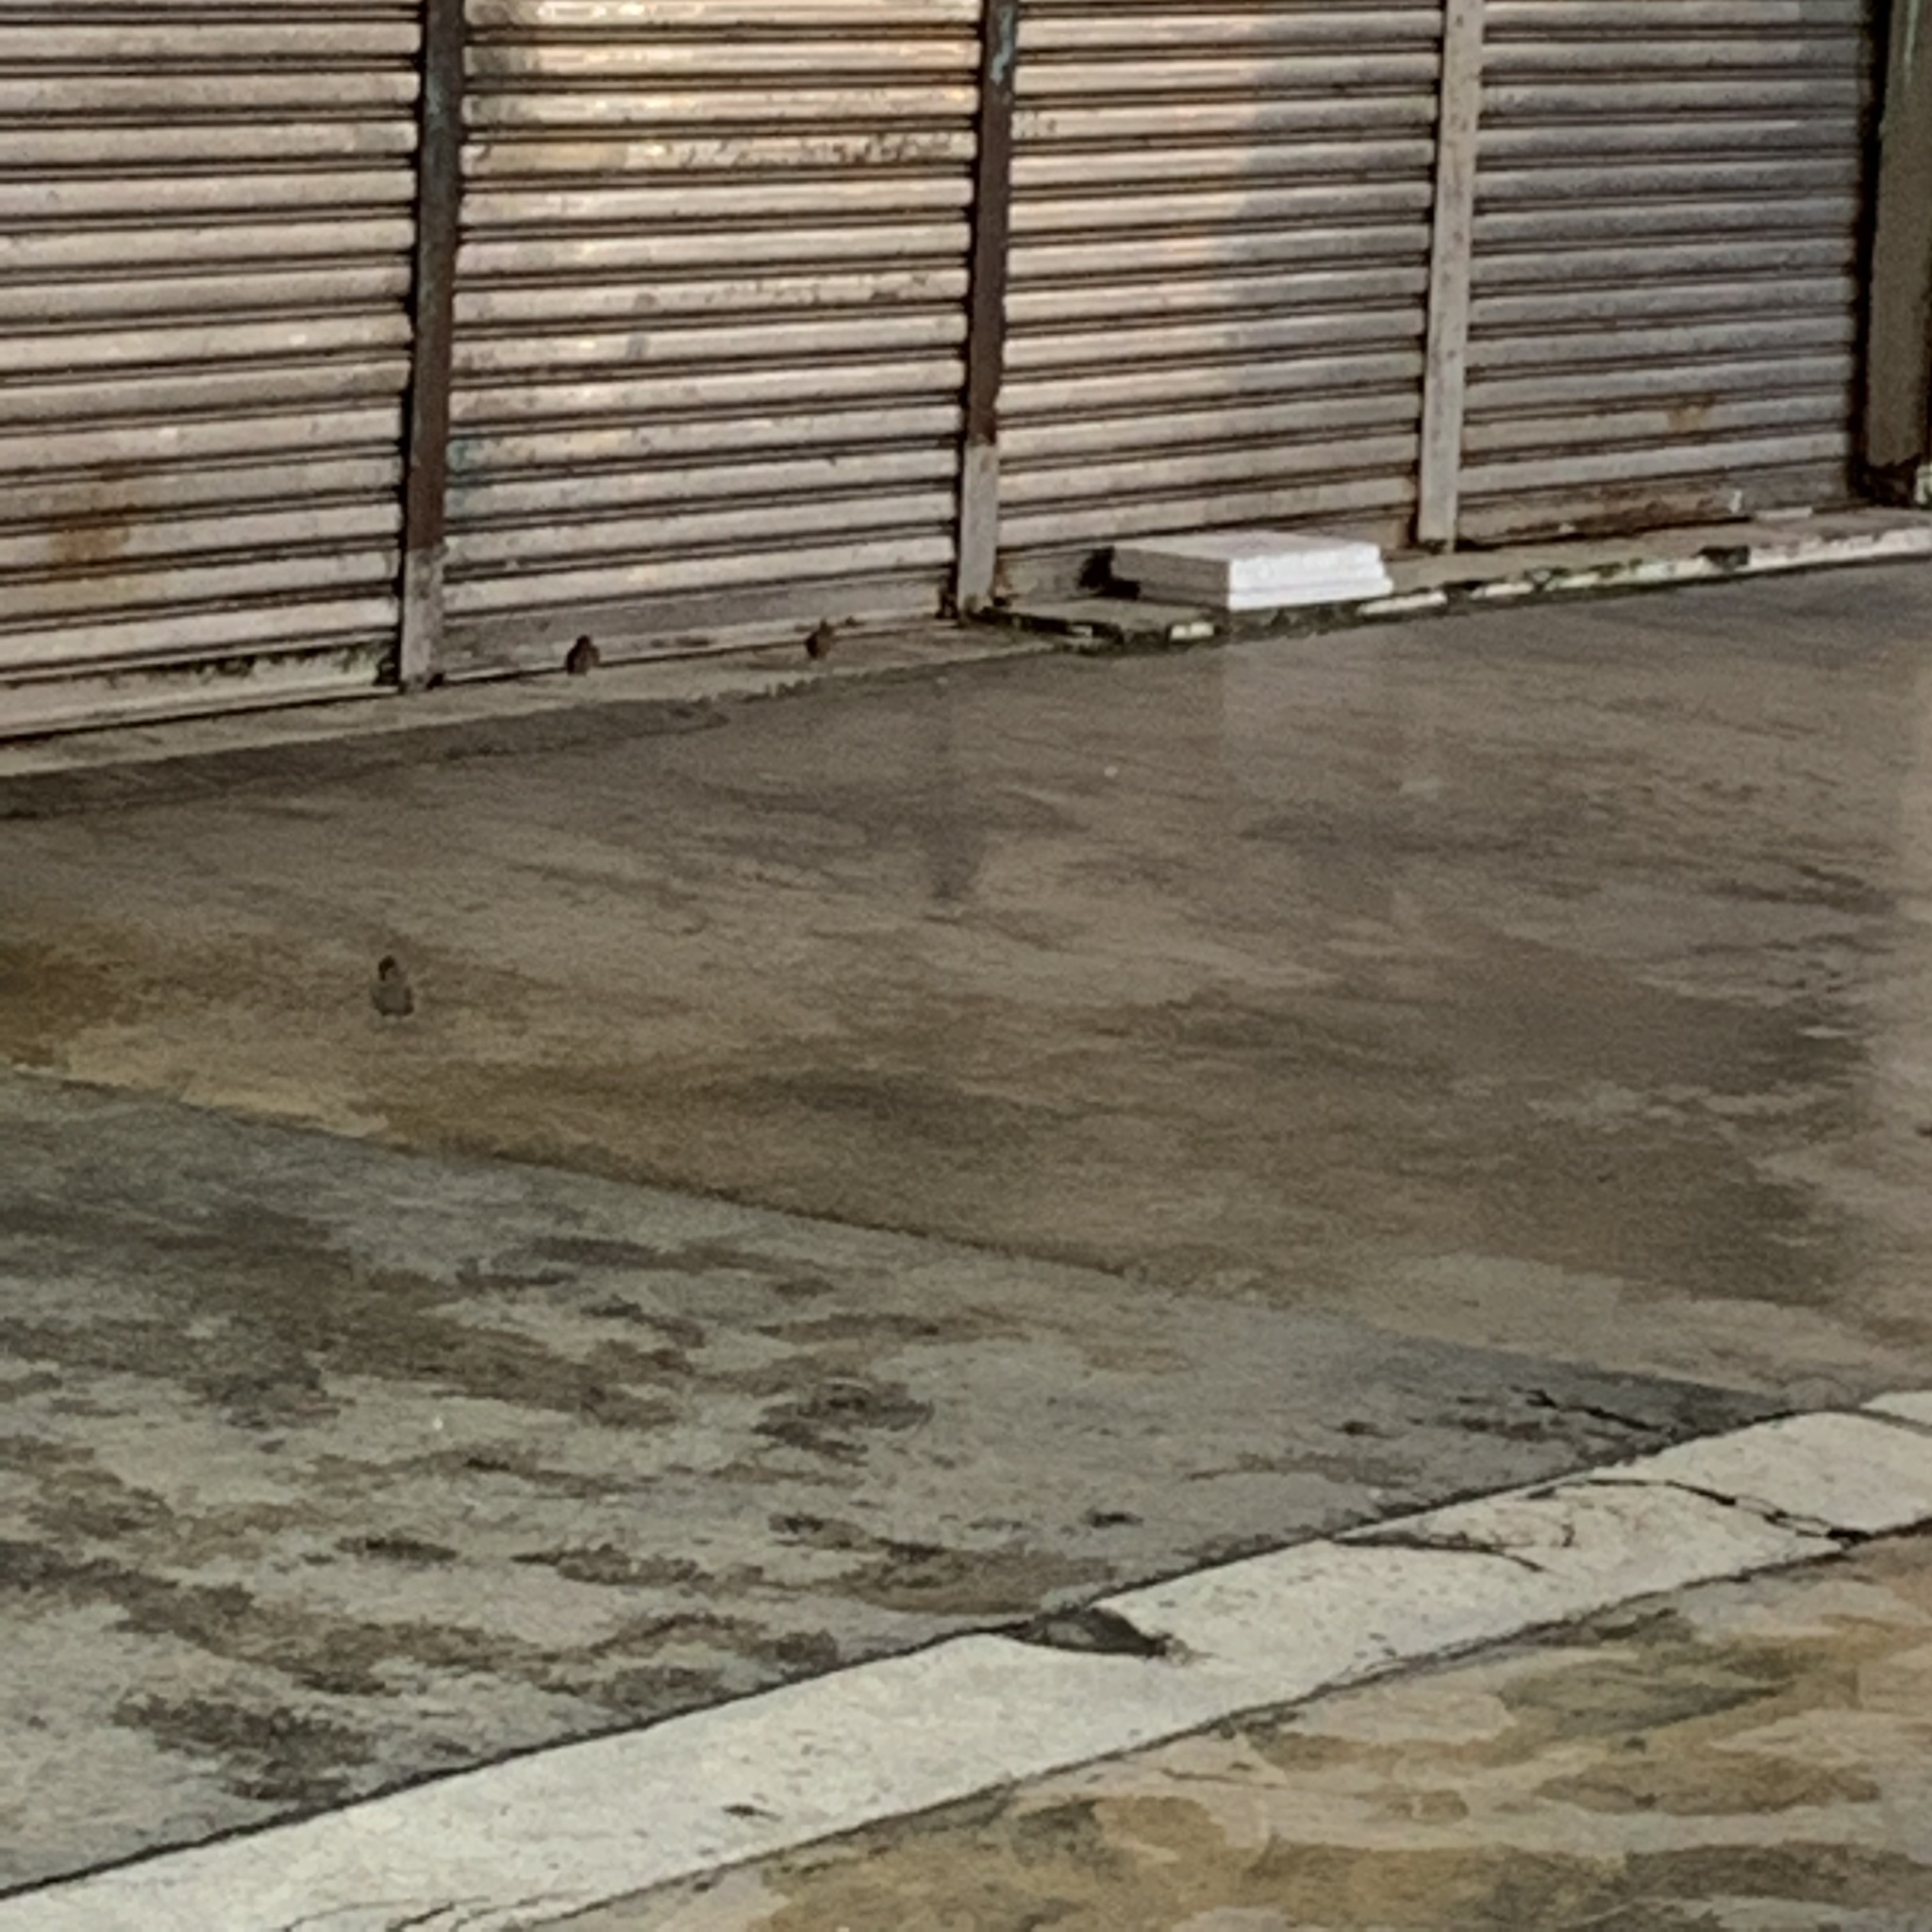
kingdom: Animalia
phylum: Chordata
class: Aves
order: Passeriformes
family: Passeridae
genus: Passer
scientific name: Passer montanus
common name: Eurasian tree sparrow
